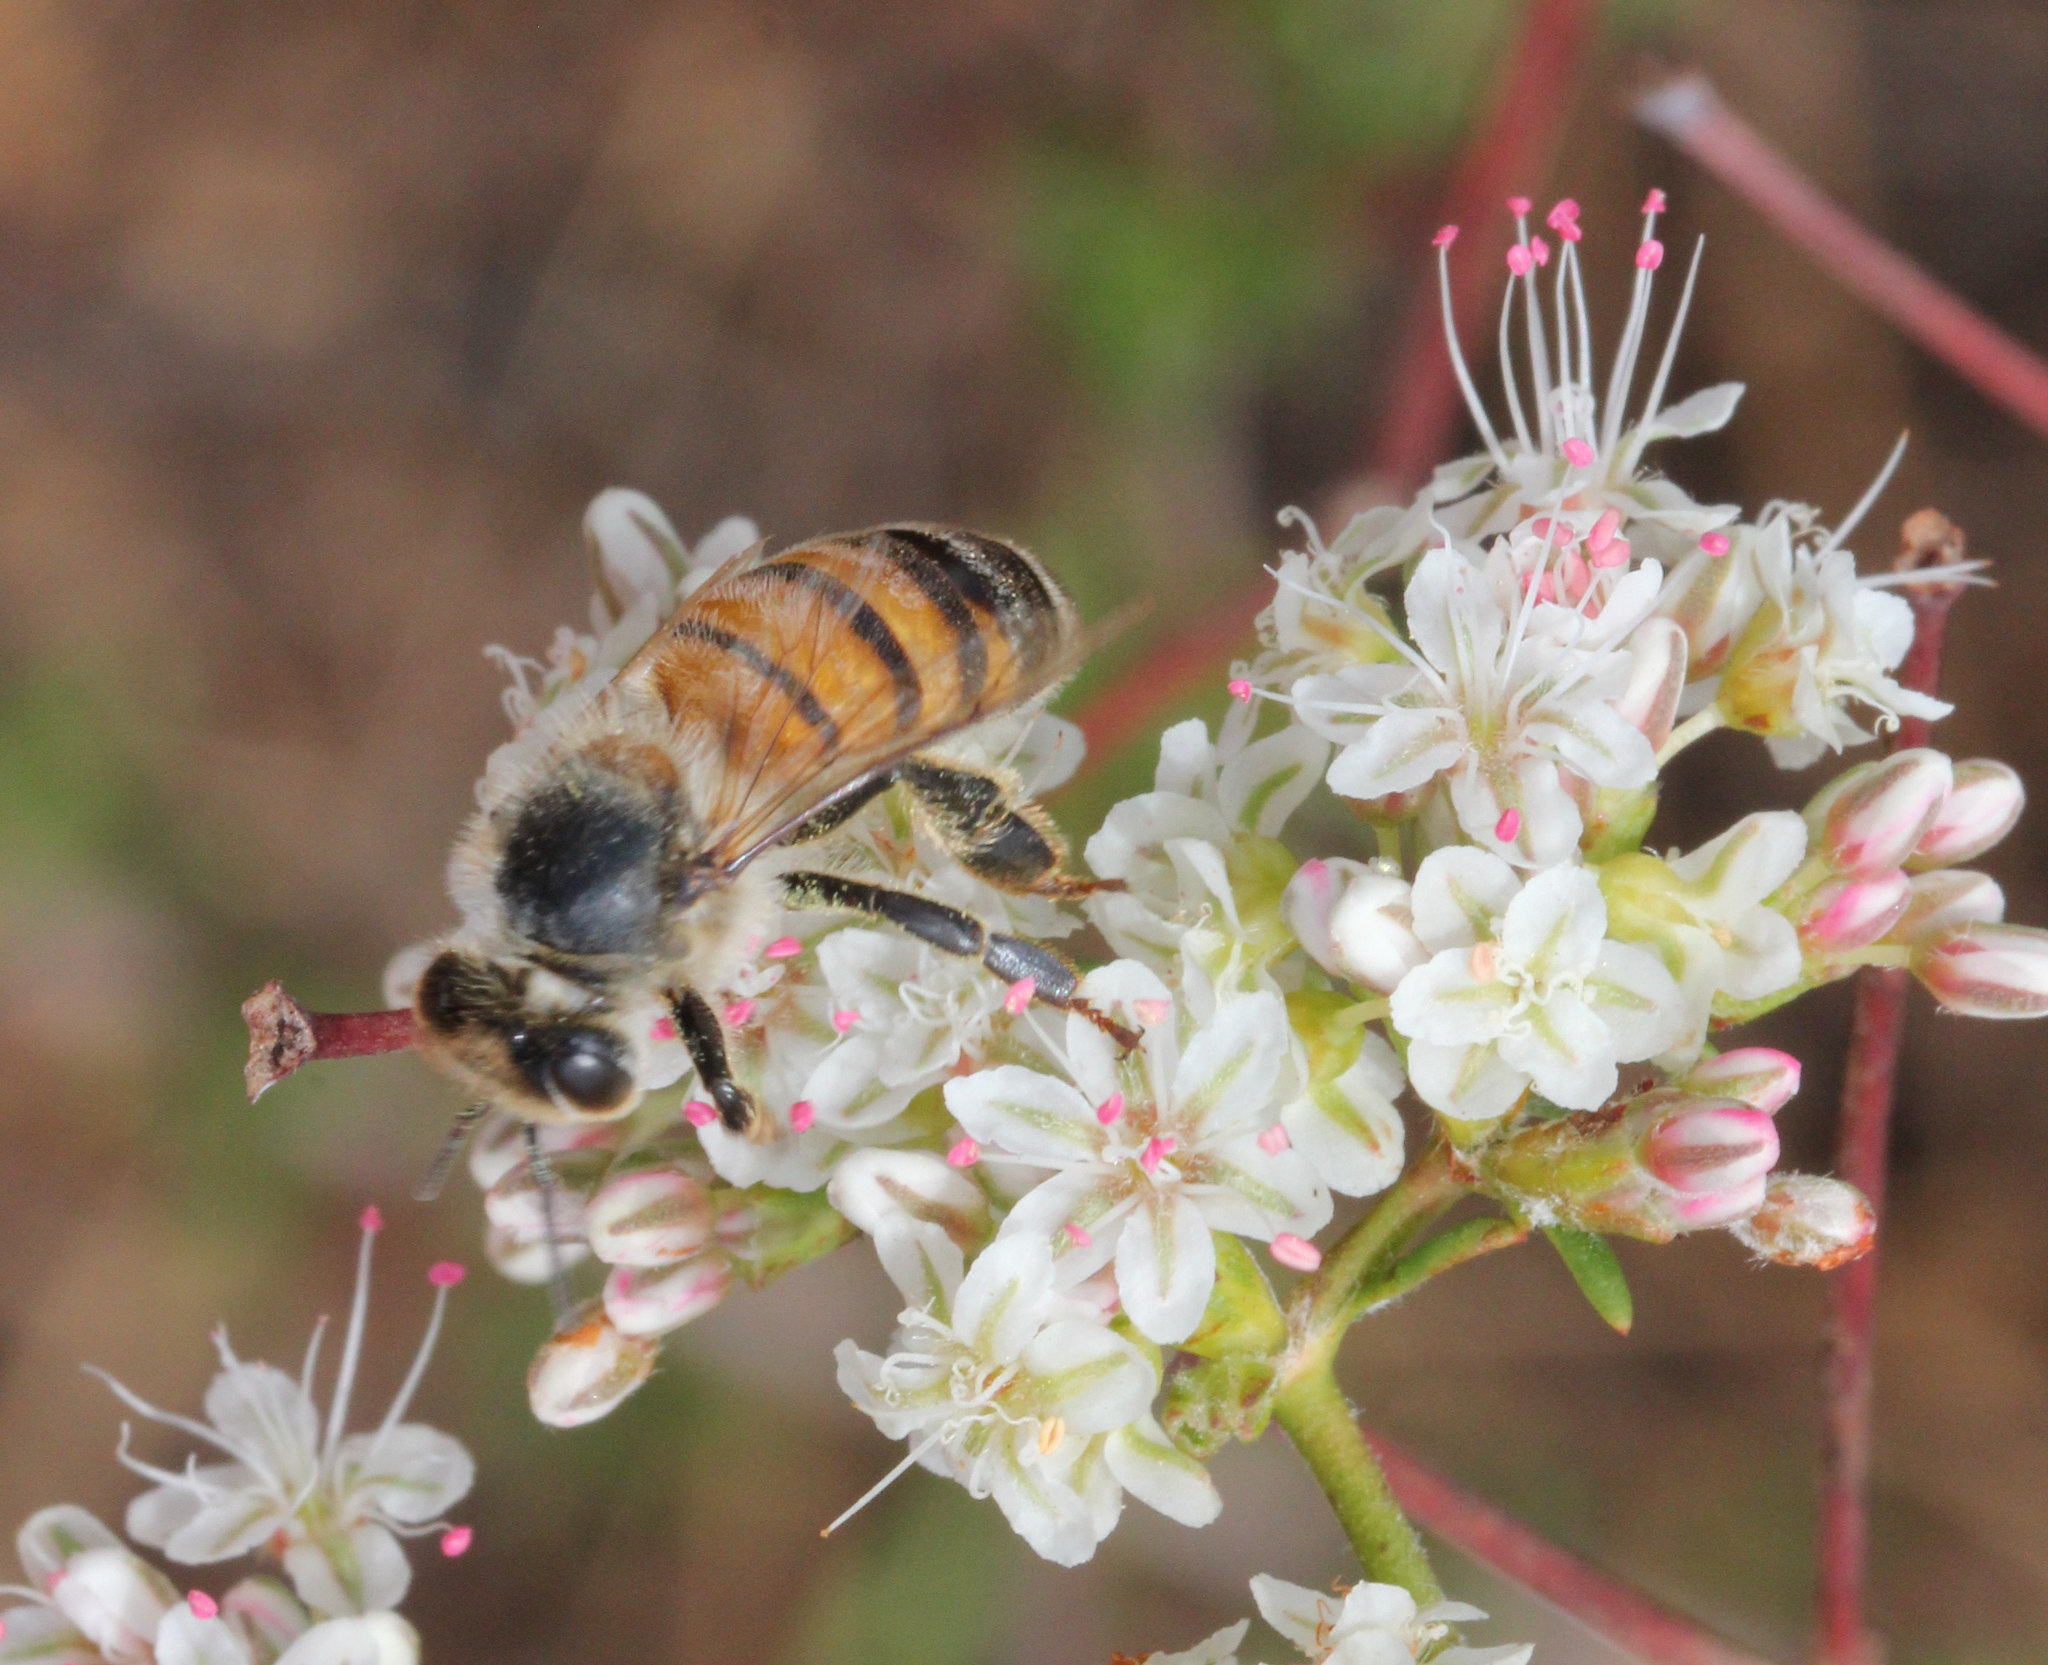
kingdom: Animalia
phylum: Arthropoda
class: Insecta
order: Hymenoptera
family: Apidae
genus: Apis
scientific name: Apis mellifera
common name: Honey bee
